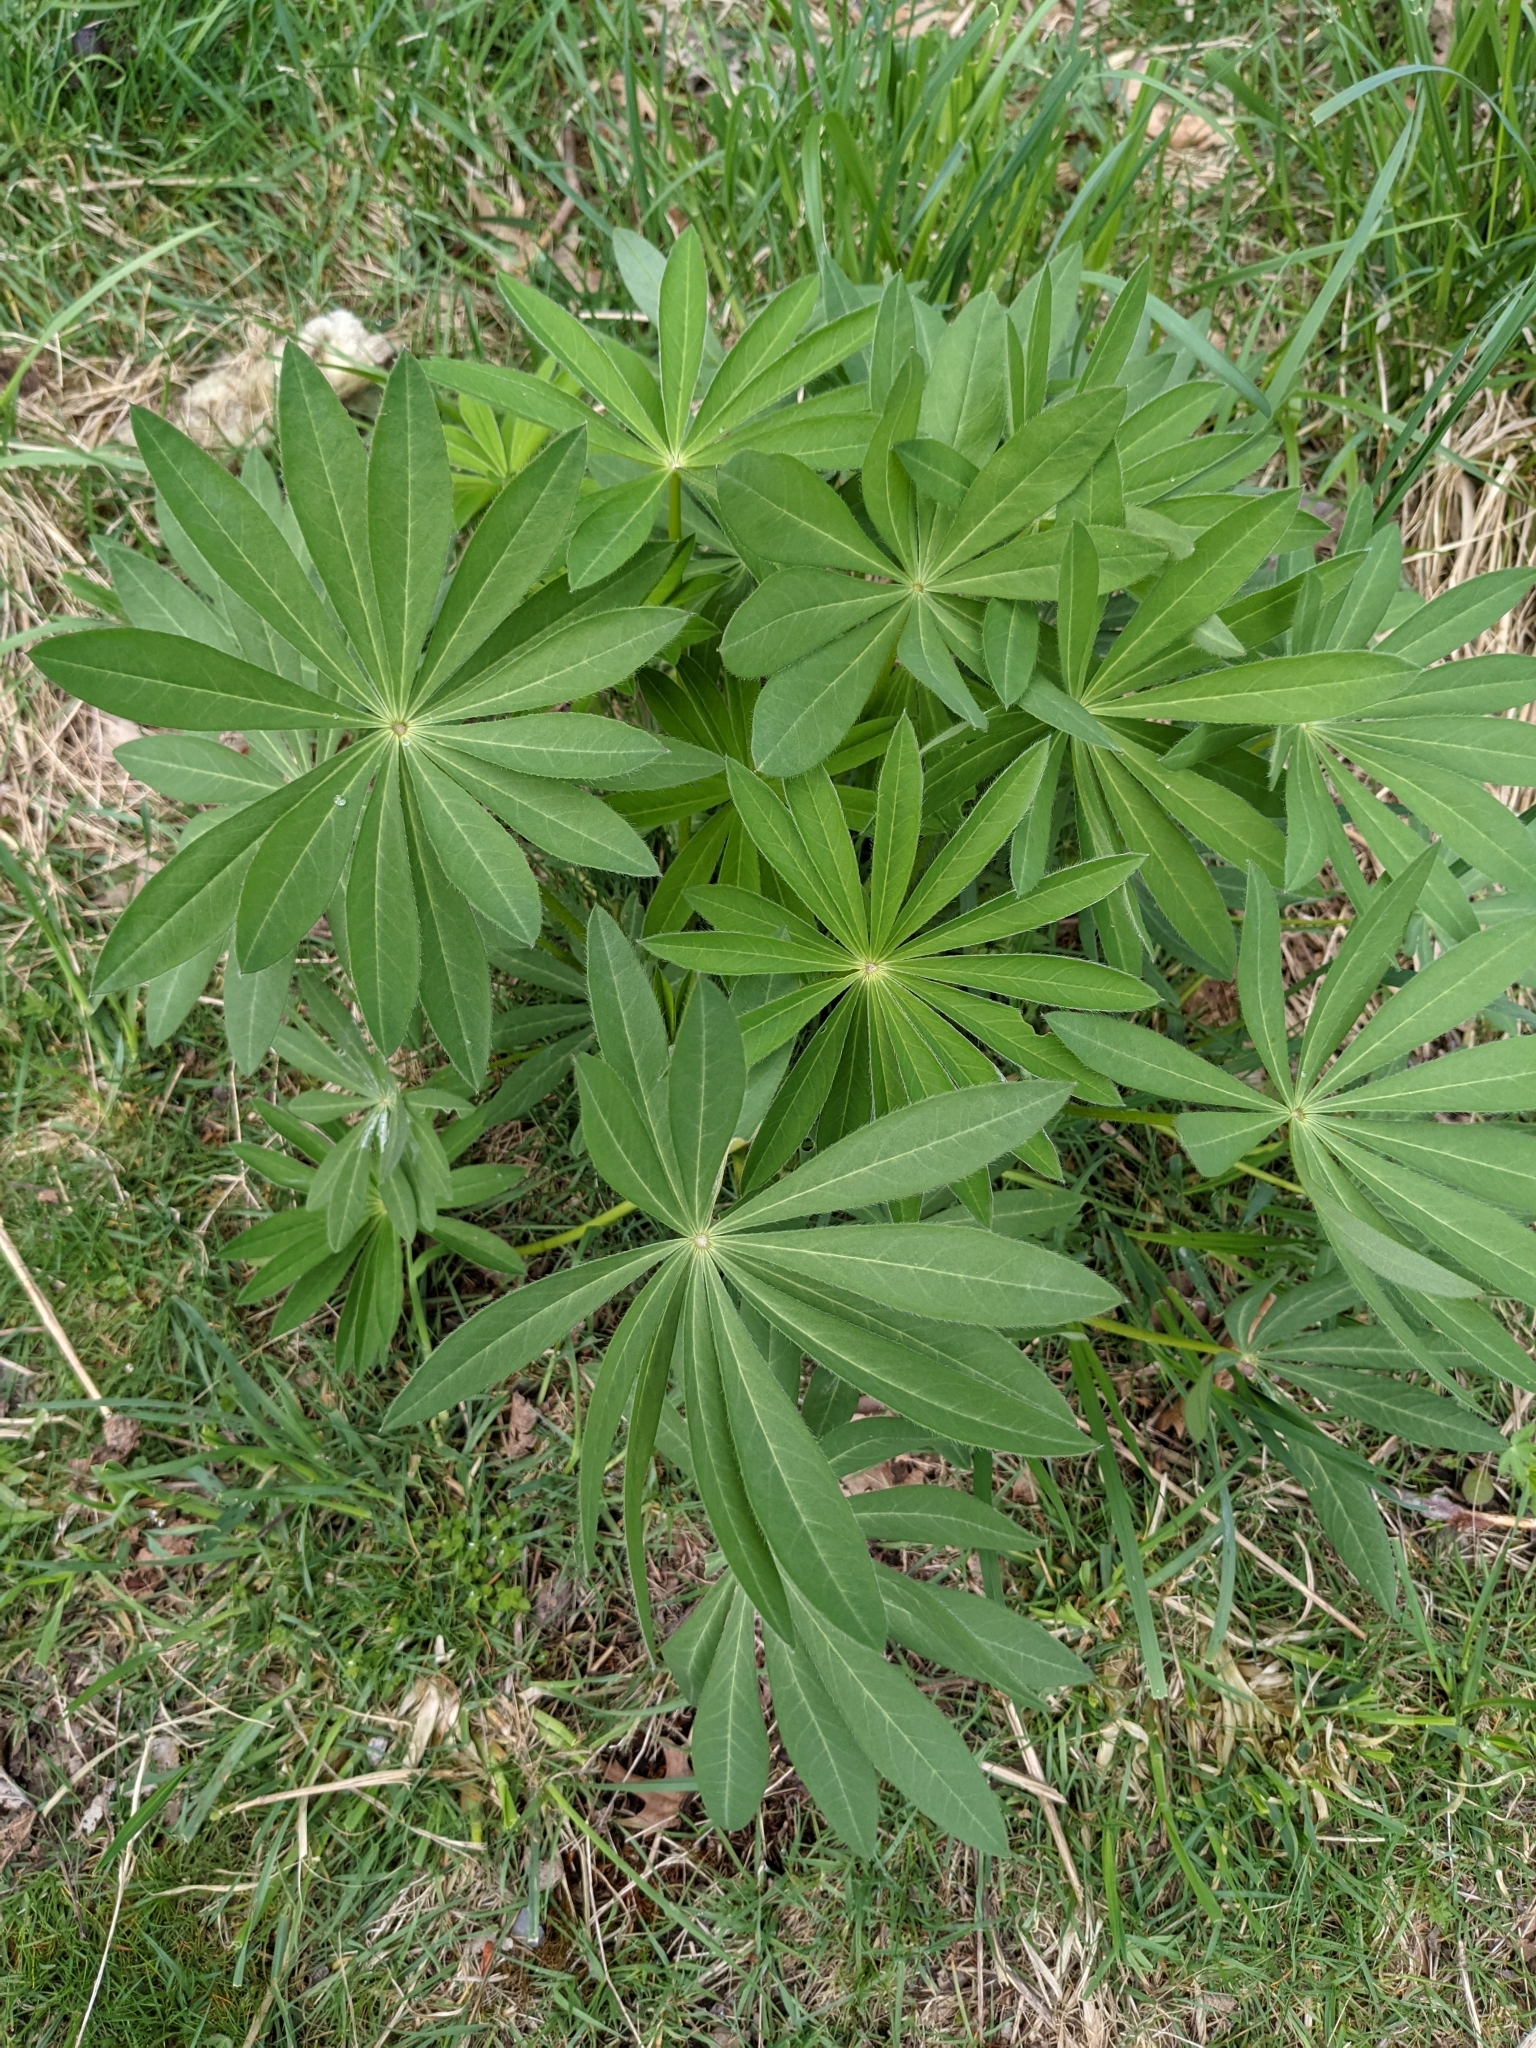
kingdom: Plantae
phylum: Tracheophyta
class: Magnoliopsida
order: Fabales
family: Fabaceae
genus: Lupinus
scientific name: Lupinus polyphyllus
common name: Garden lupin
